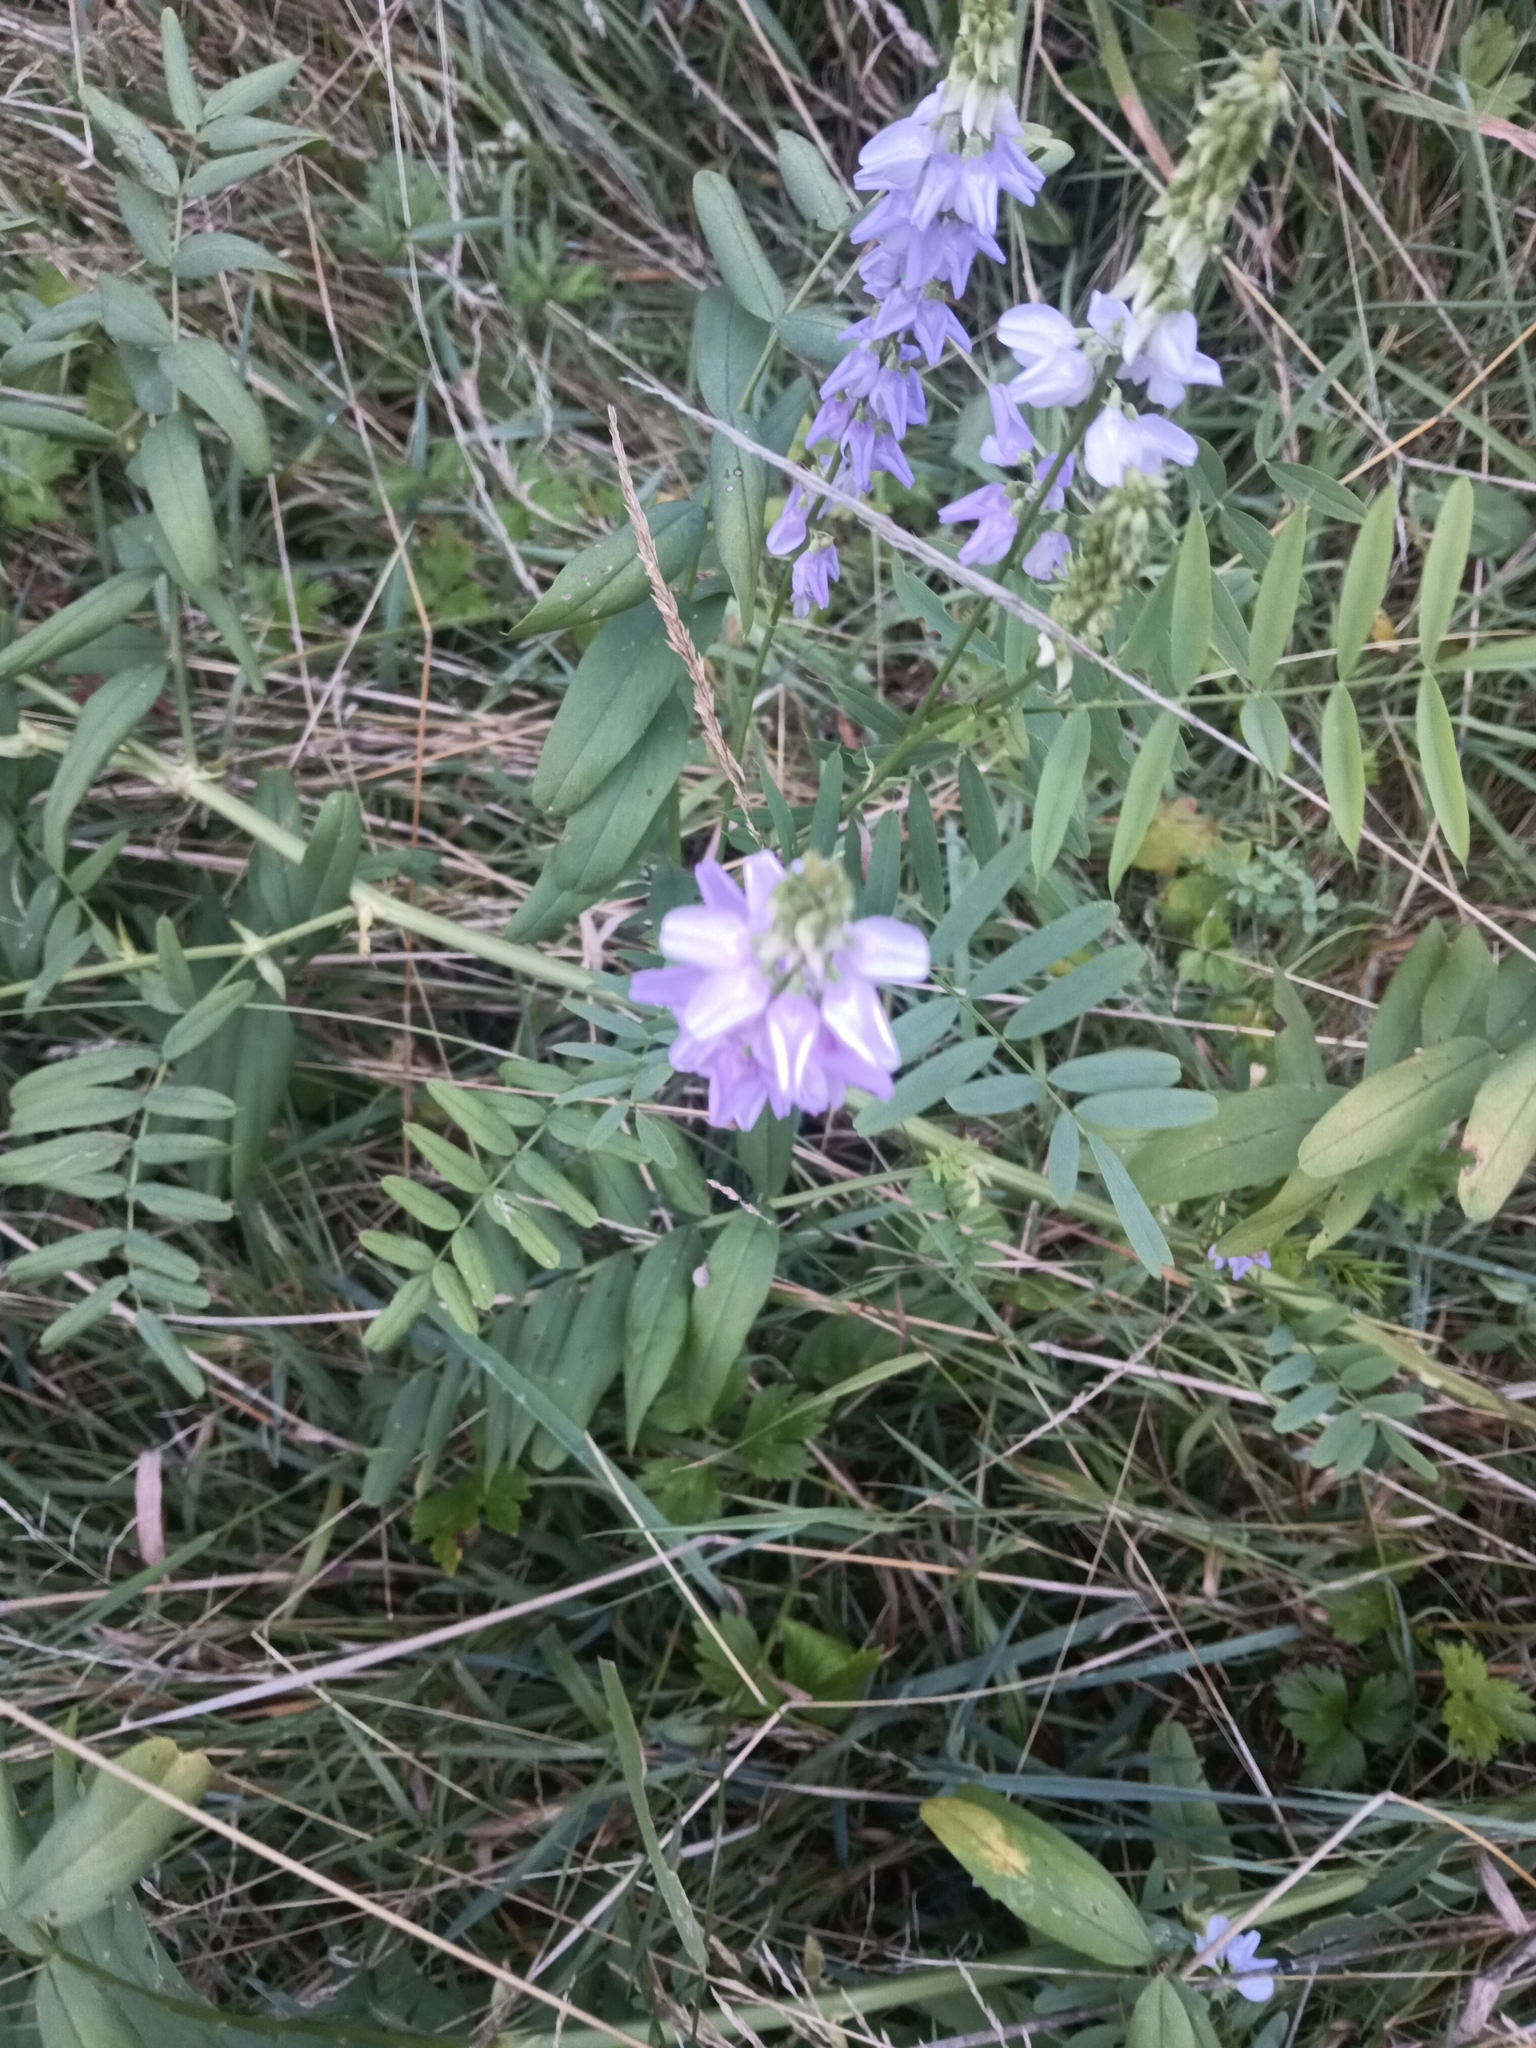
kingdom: Plantae
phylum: Tracheophyta
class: Magnoliopsida
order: Fabales
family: Fabaceae
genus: Galega
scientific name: Galega officinalis
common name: Goat's-rue
